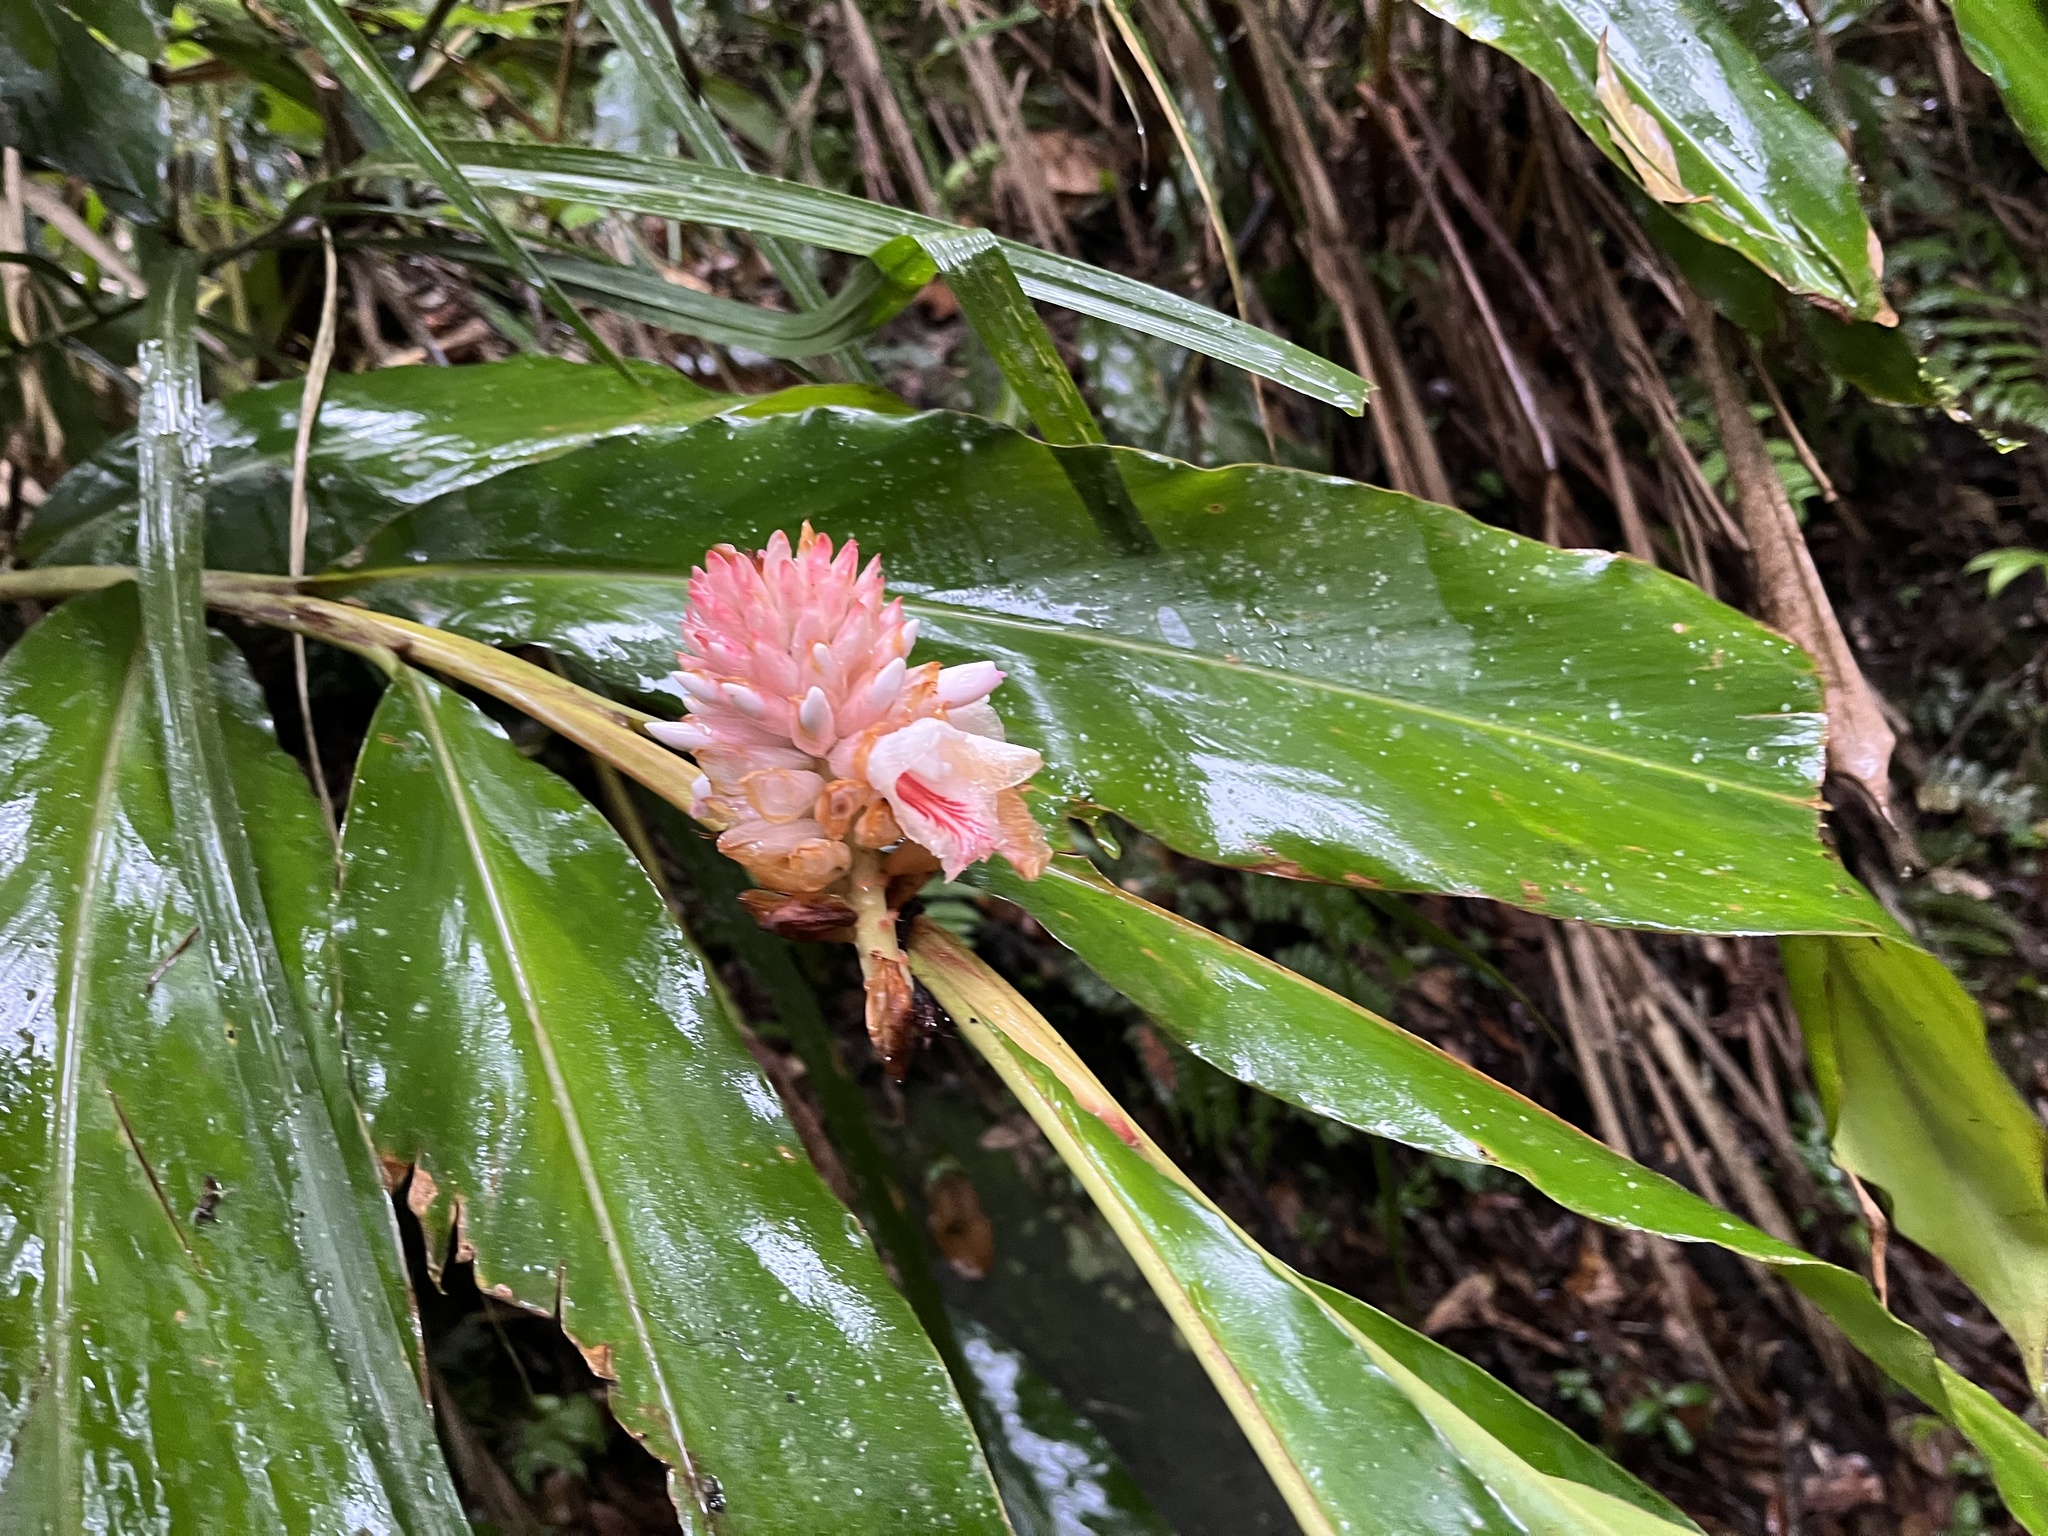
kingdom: Plantae
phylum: Tracheophyta
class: Liliopsida
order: Zingiberales
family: Zingiberaceae
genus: Alpinia
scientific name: Alpinia sessiliflora
